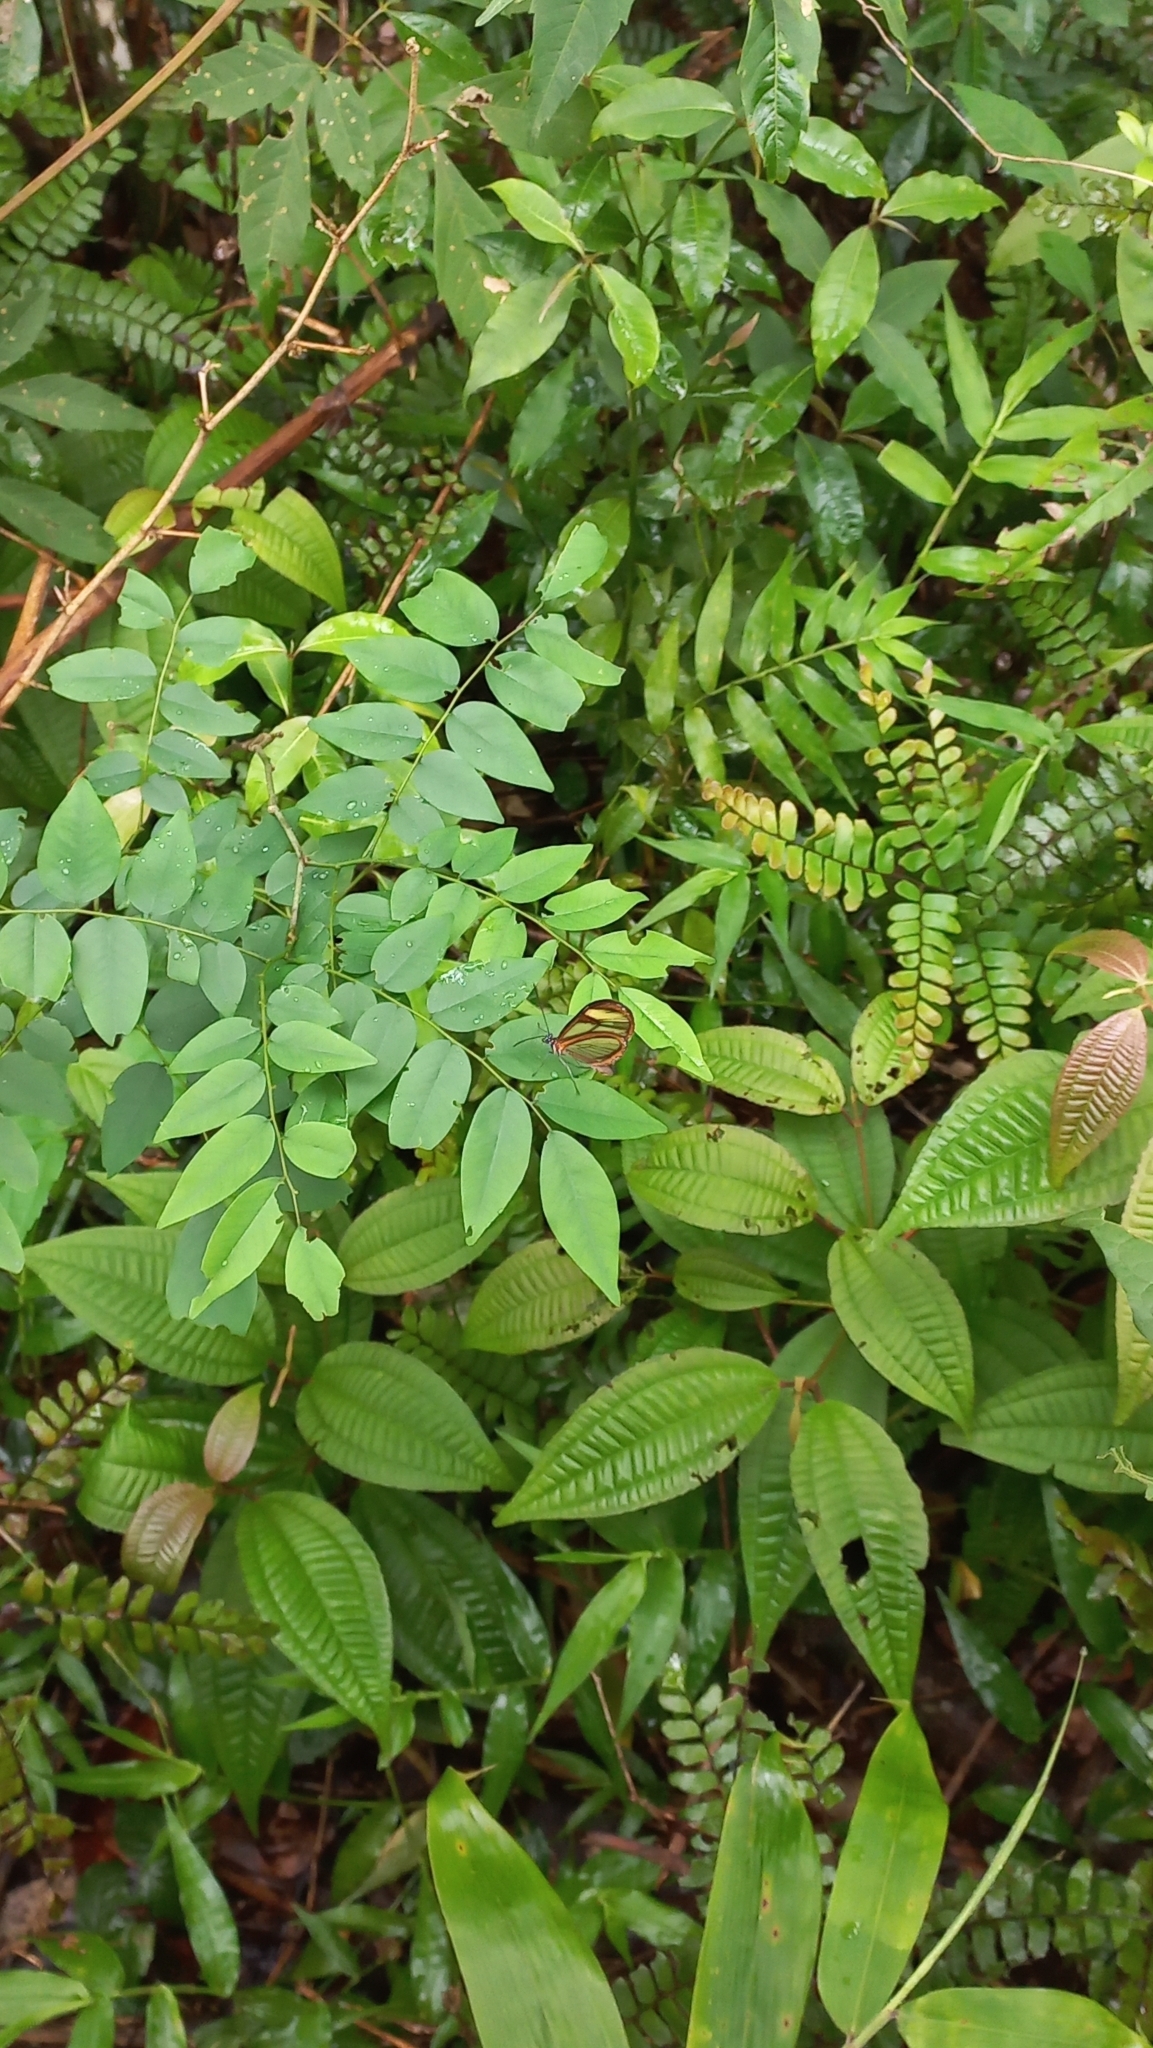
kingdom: Animalia
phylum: Arthropoda
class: Insecta
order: Lepidoptera
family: Nymphalidae
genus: Mcclungia
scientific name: Mcclungia cymo
